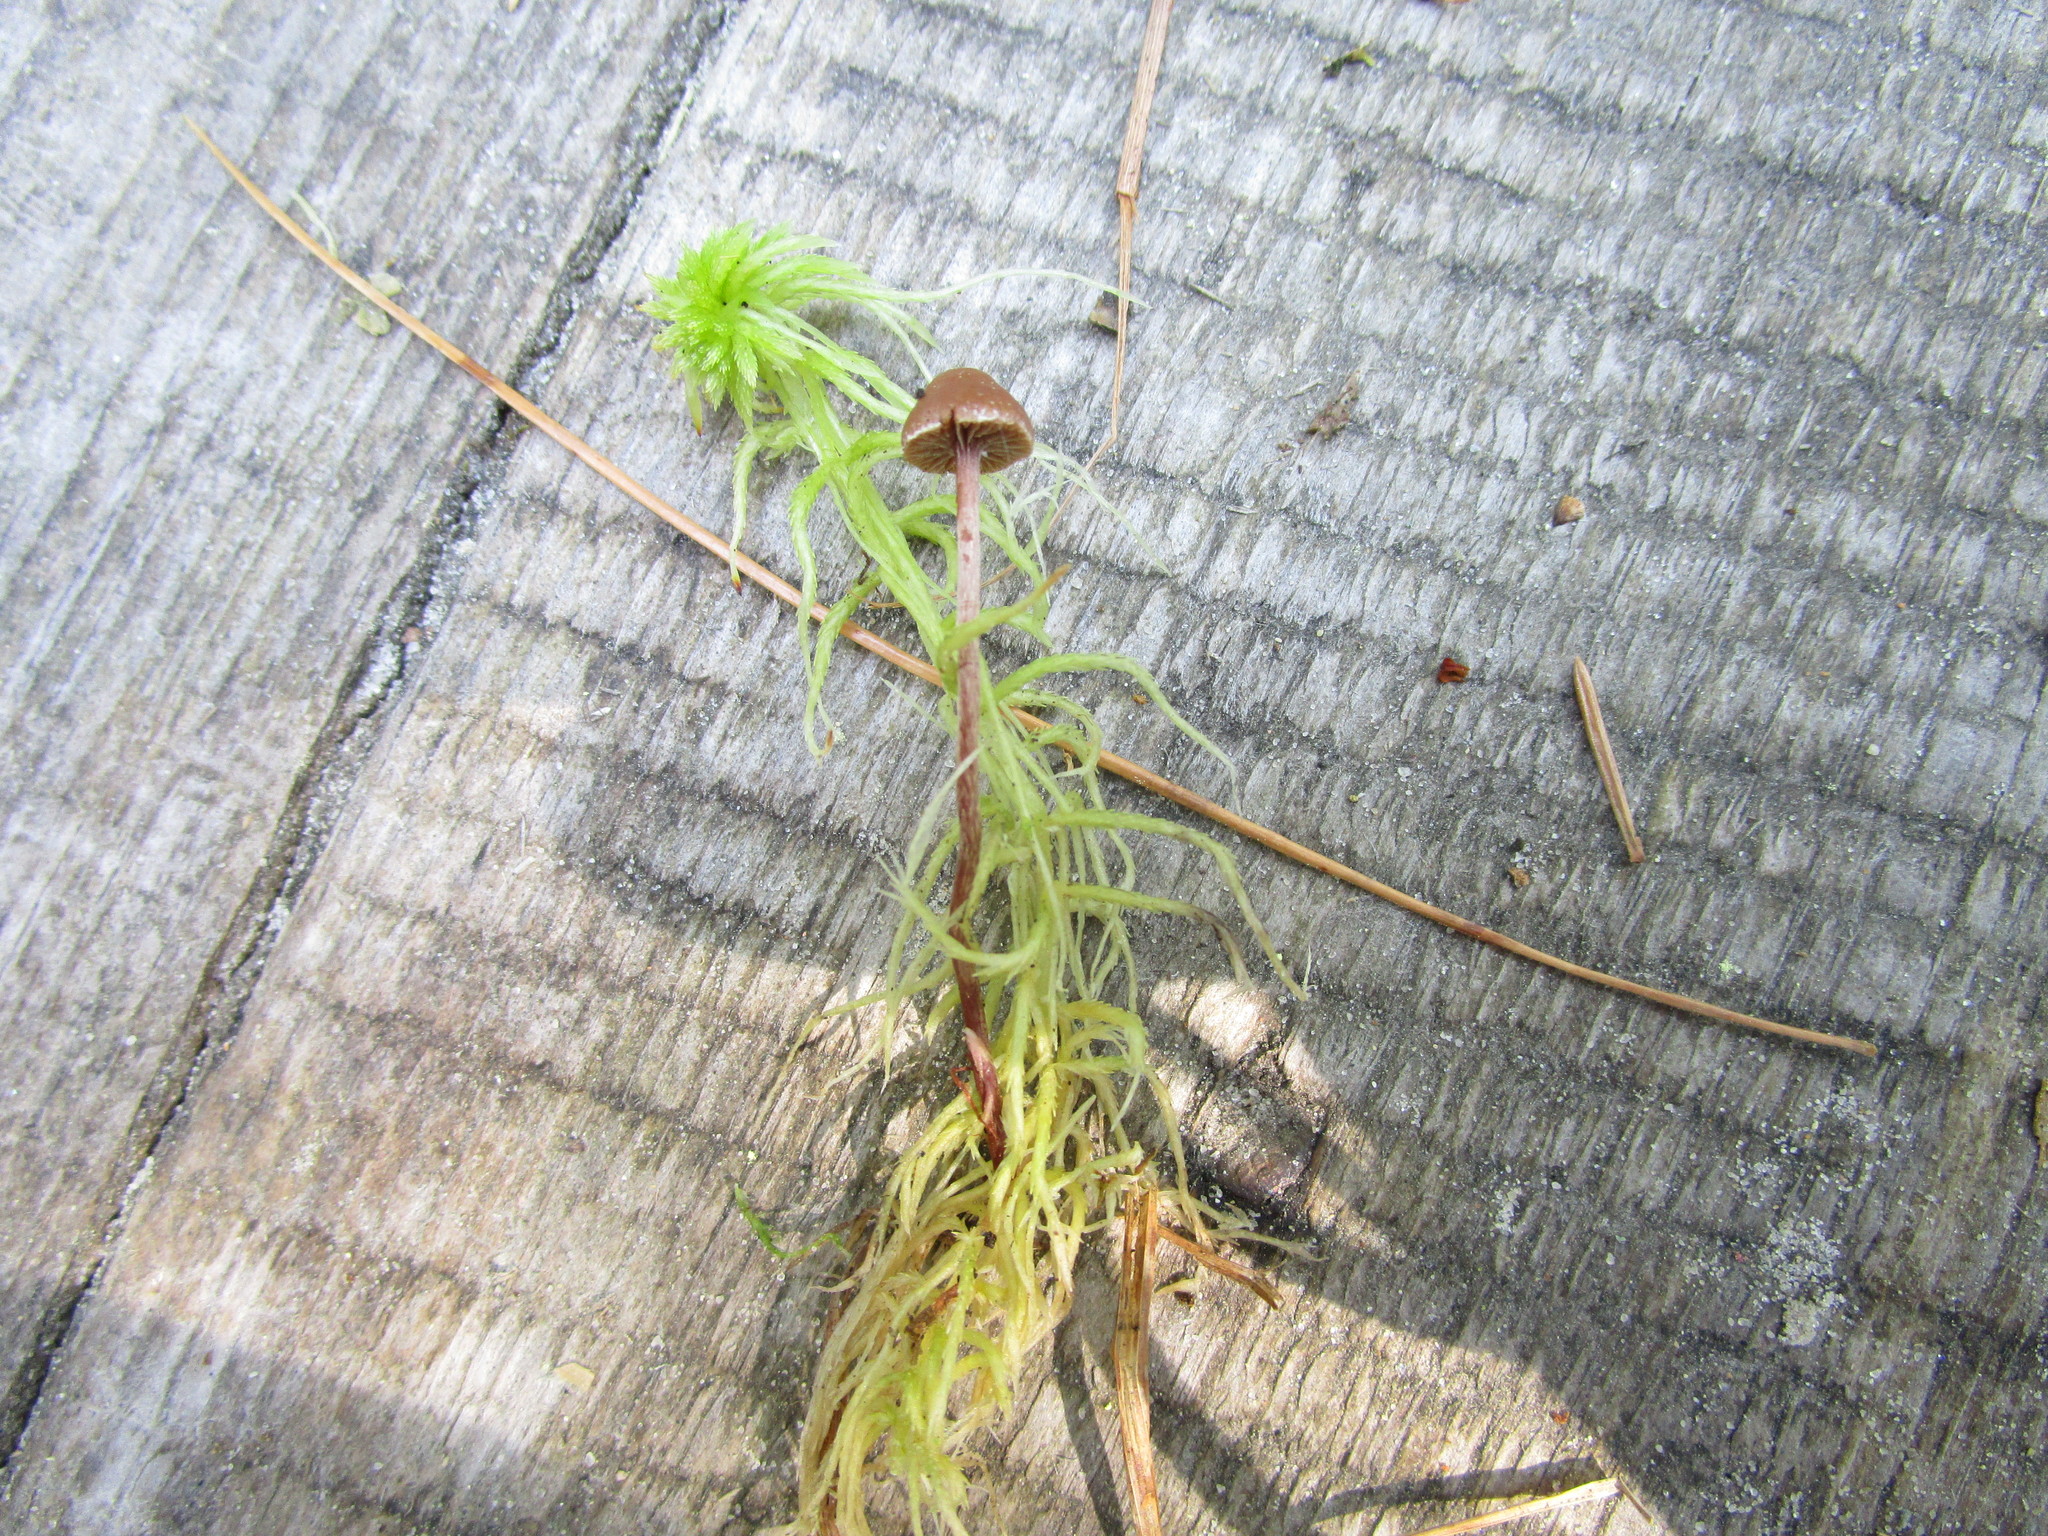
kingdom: Fungi
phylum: Basidiomycota
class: Agaricomycetes
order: Agaricales
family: Strophariaceae
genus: Deconica
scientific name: Deconica phyllogena
